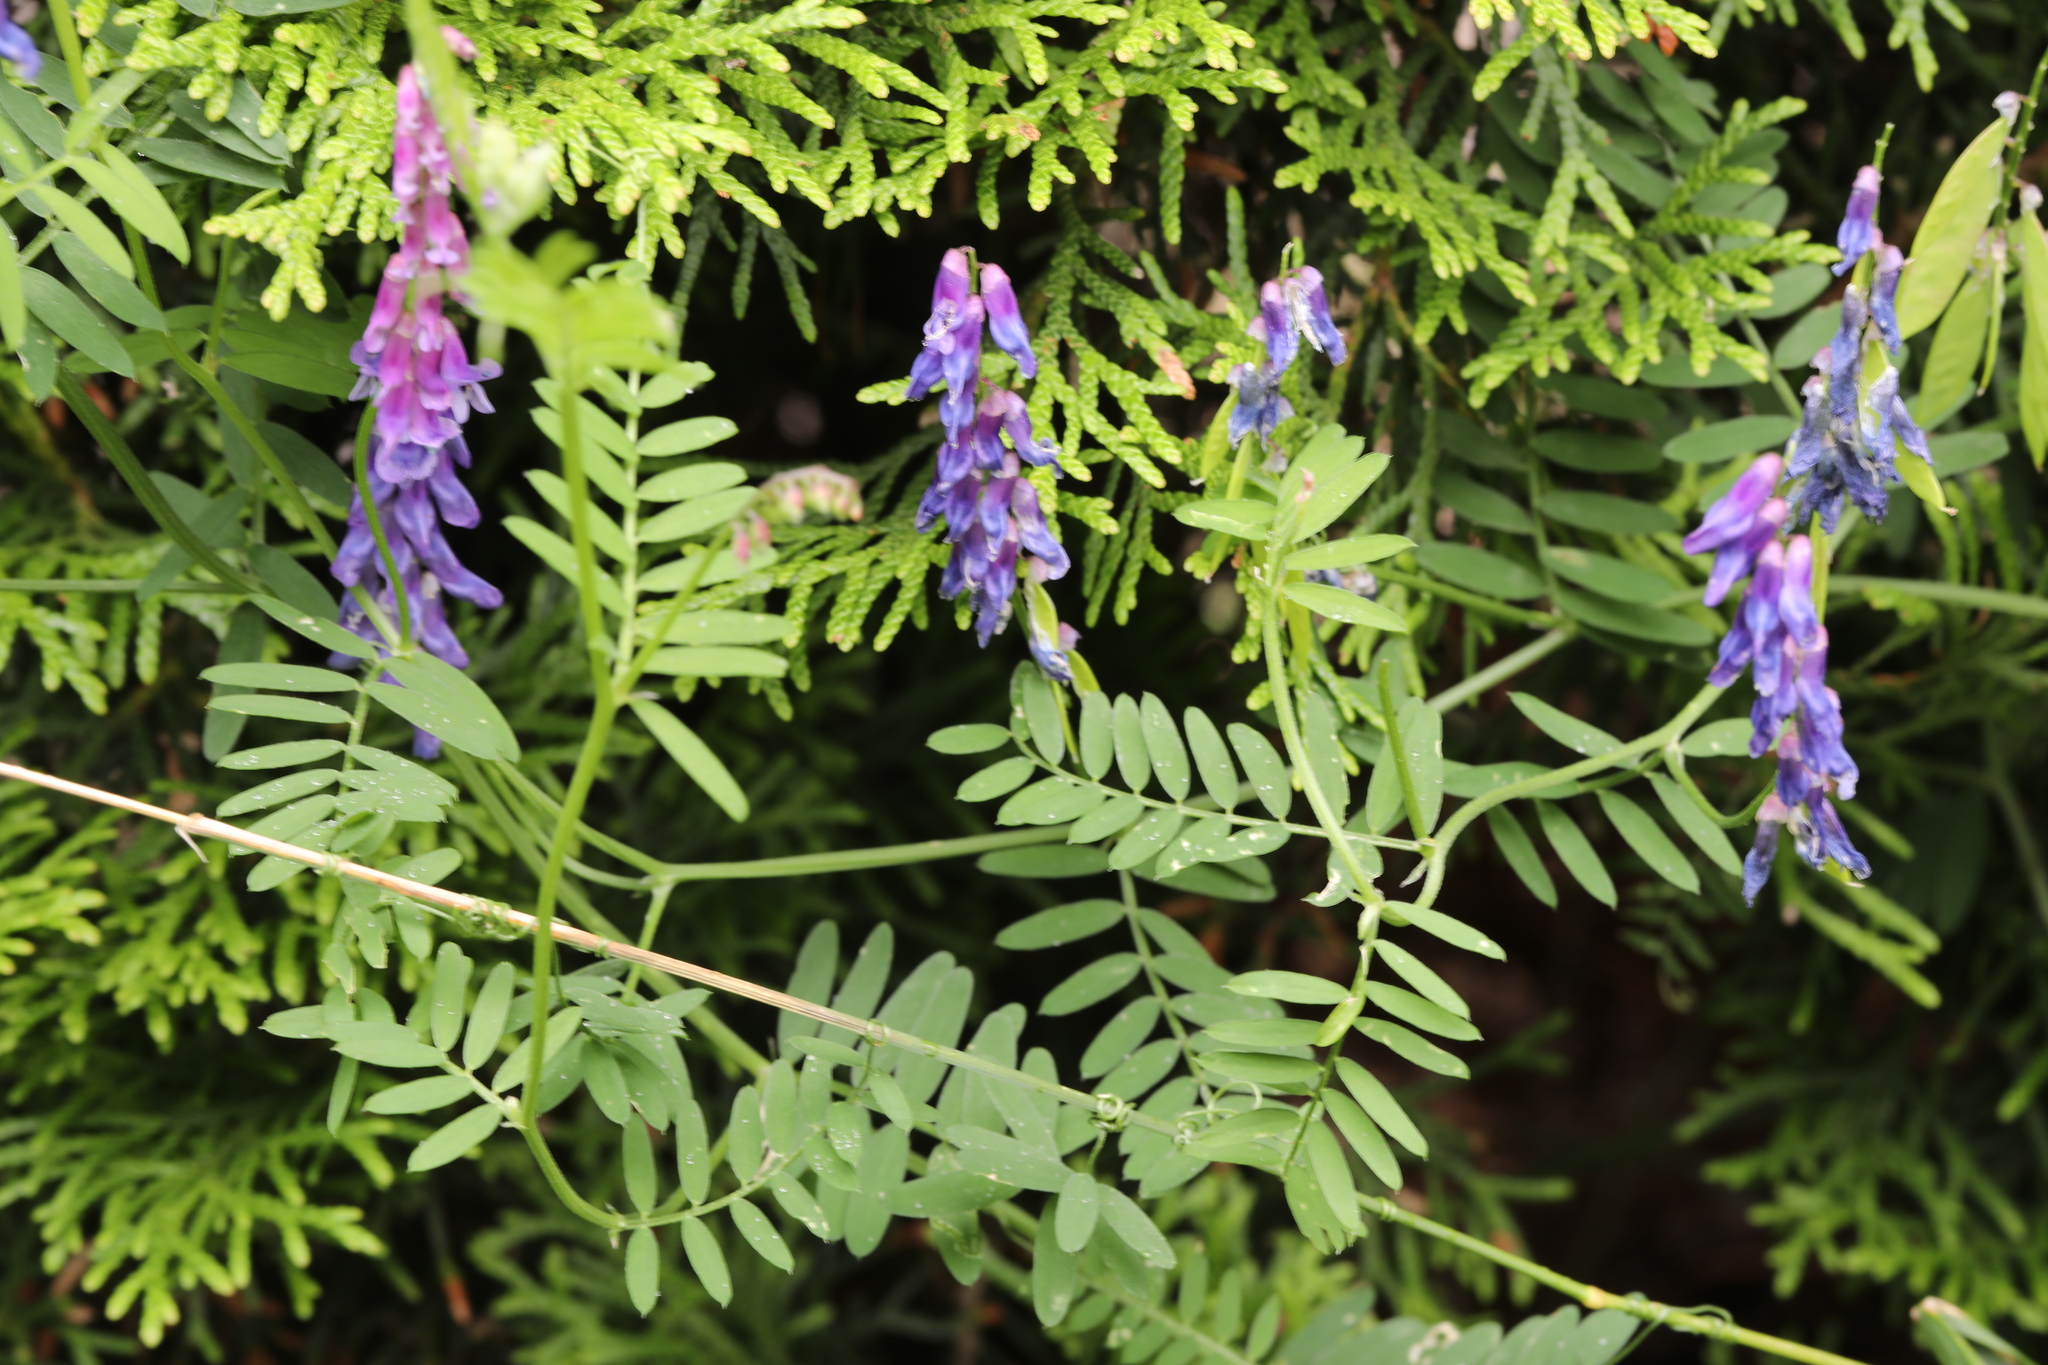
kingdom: Plantae
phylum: Tracheophyta
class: Magnoliopsida
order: Fabales
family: Fabaceae
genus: Vicia
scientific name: Vicia cracca
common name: Bird vetch
